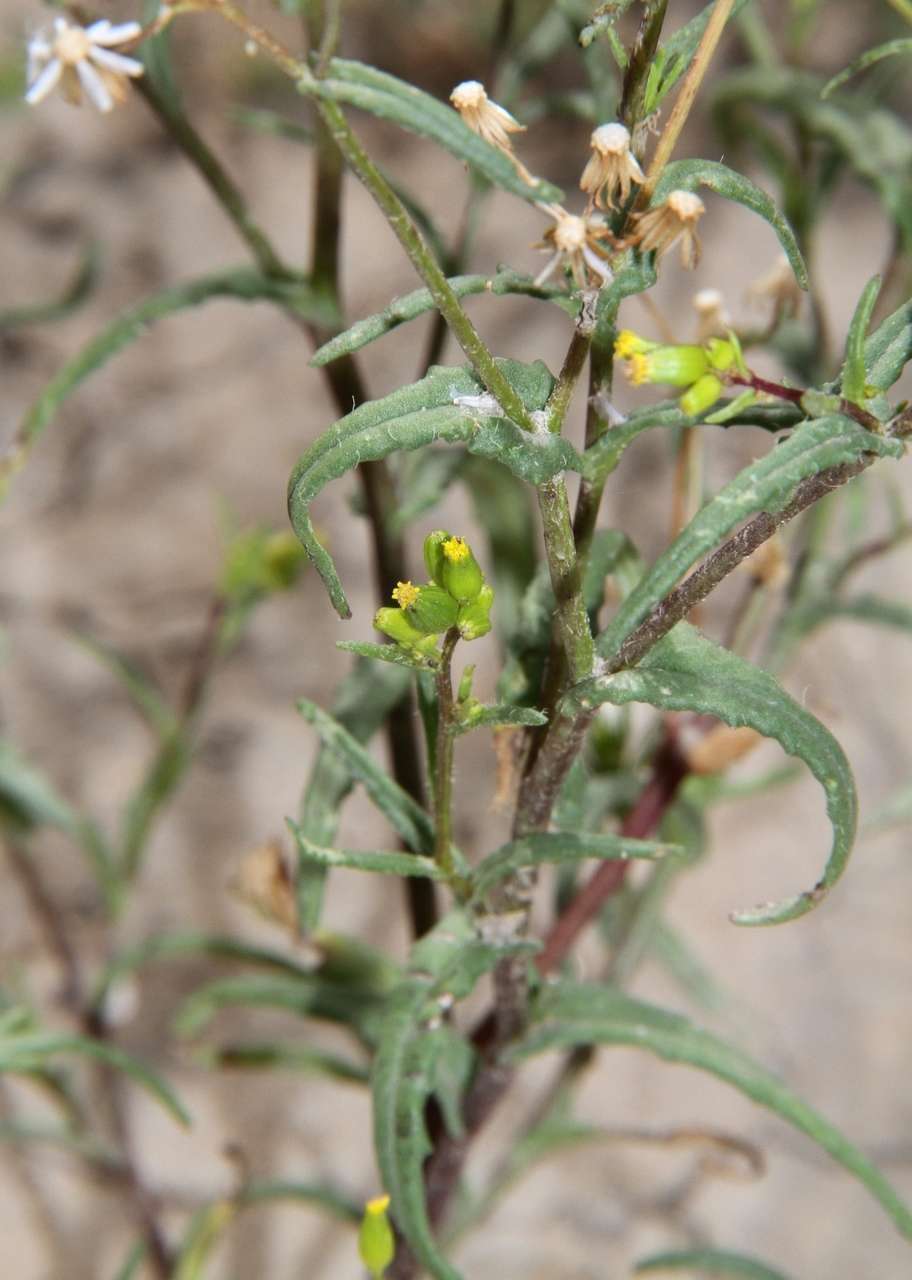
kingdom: Plantae
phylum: Tracheophyta
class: Magnoliopsida
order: Asterales
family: Asteraceae
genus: Senecio
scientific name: Senecio glossanthus
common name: Slender groundsel
